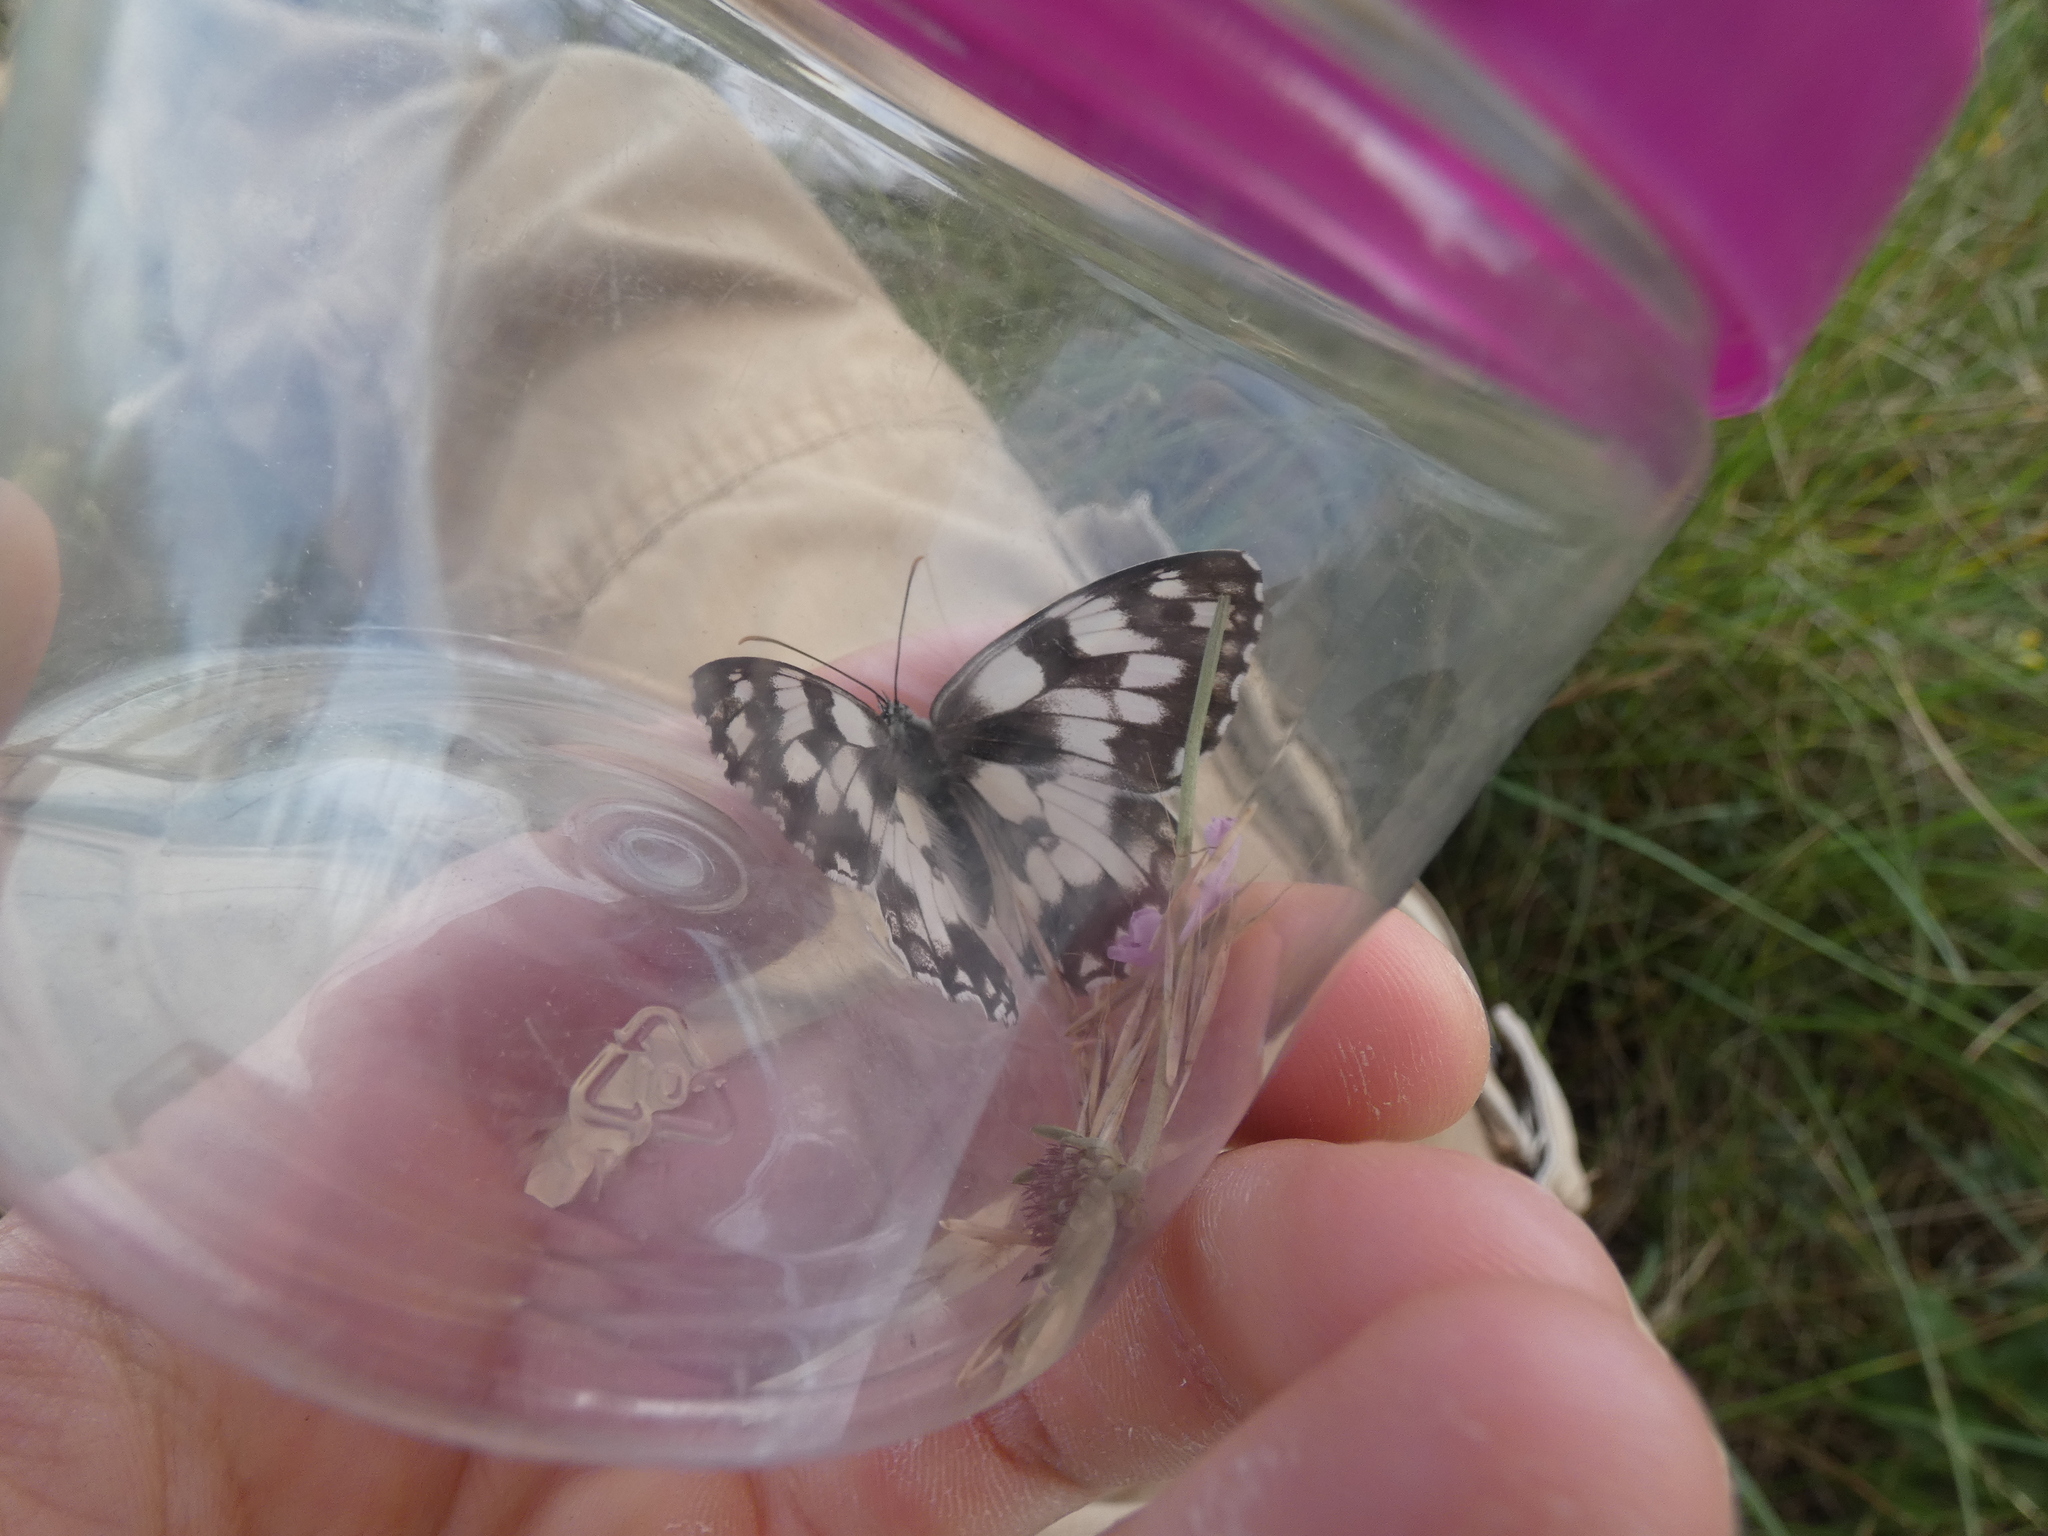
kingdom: Animalia
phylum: Arthropoda
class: Insecta
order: Lepidoptera
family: Nymphalidae
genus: Melanargia
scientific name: Melanargia galathea
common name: Marbled white
